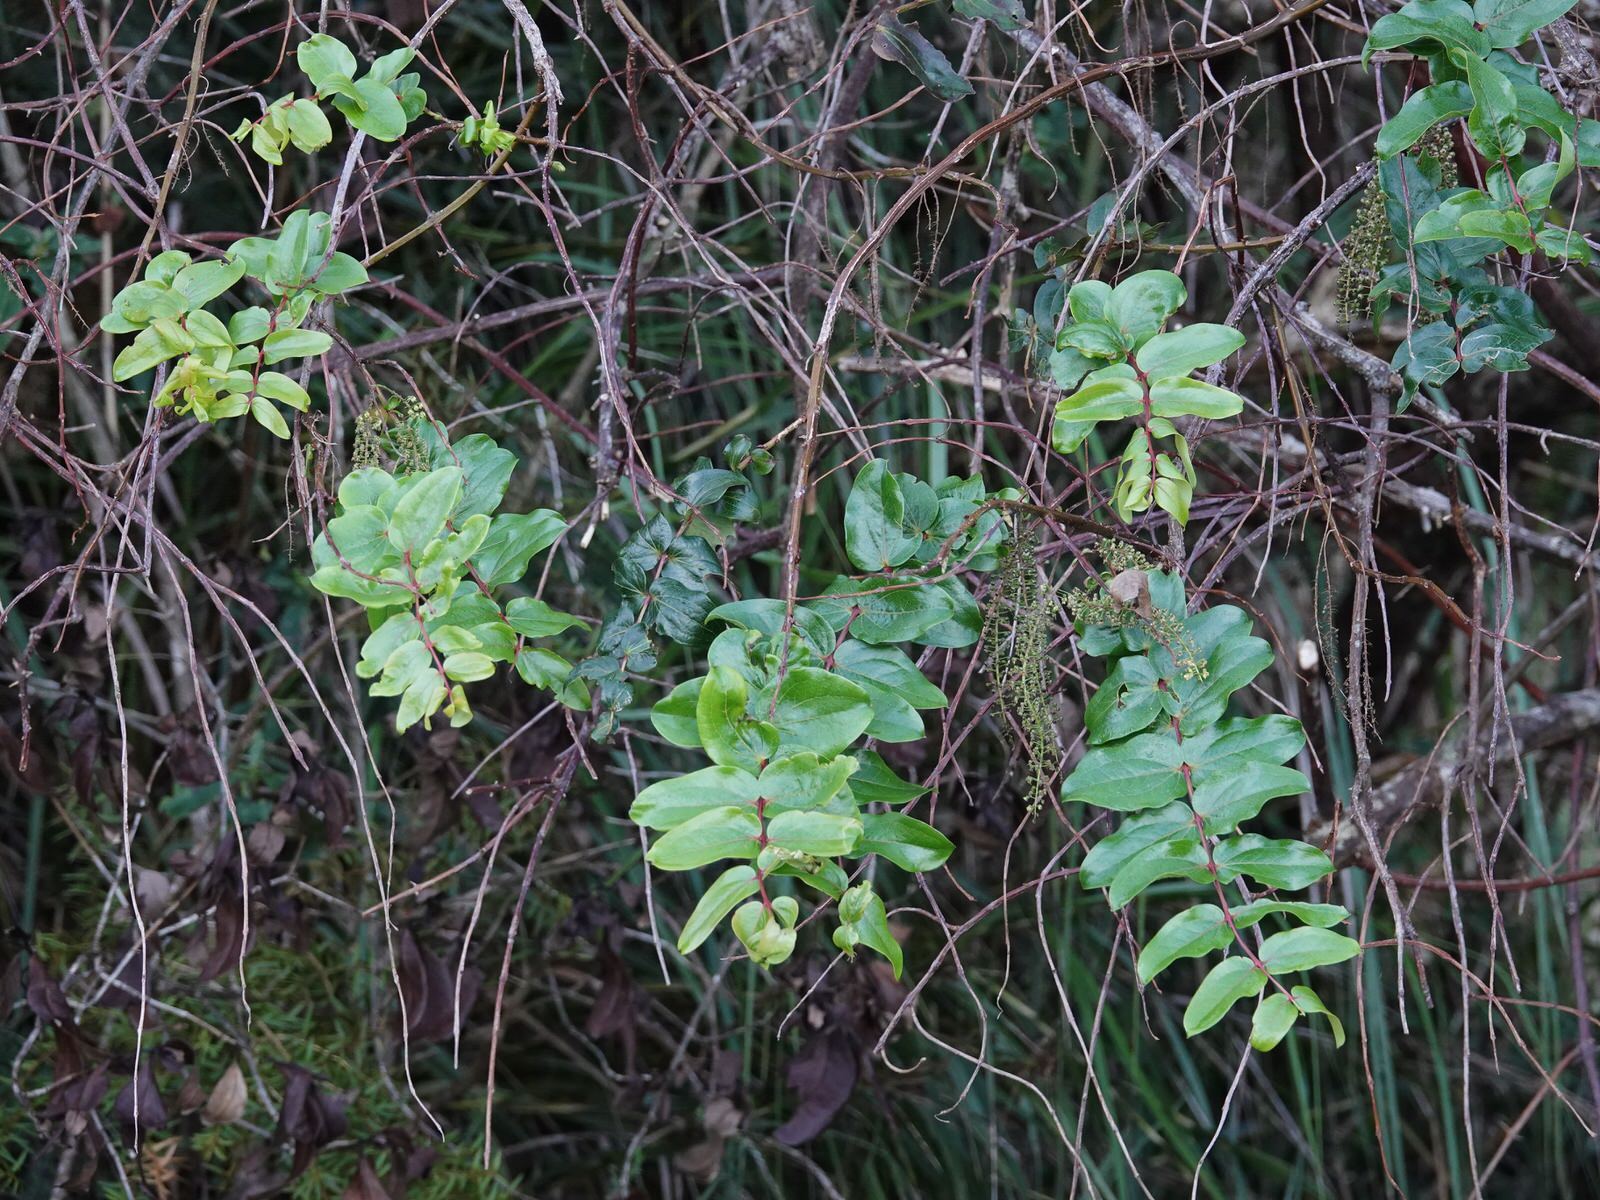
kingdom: Plantae
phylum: Tracheophyta
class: Magnoliopsida
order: Cucurbitales
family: Coriariaceae
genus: Coriaria
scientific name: Coriaria arborea
